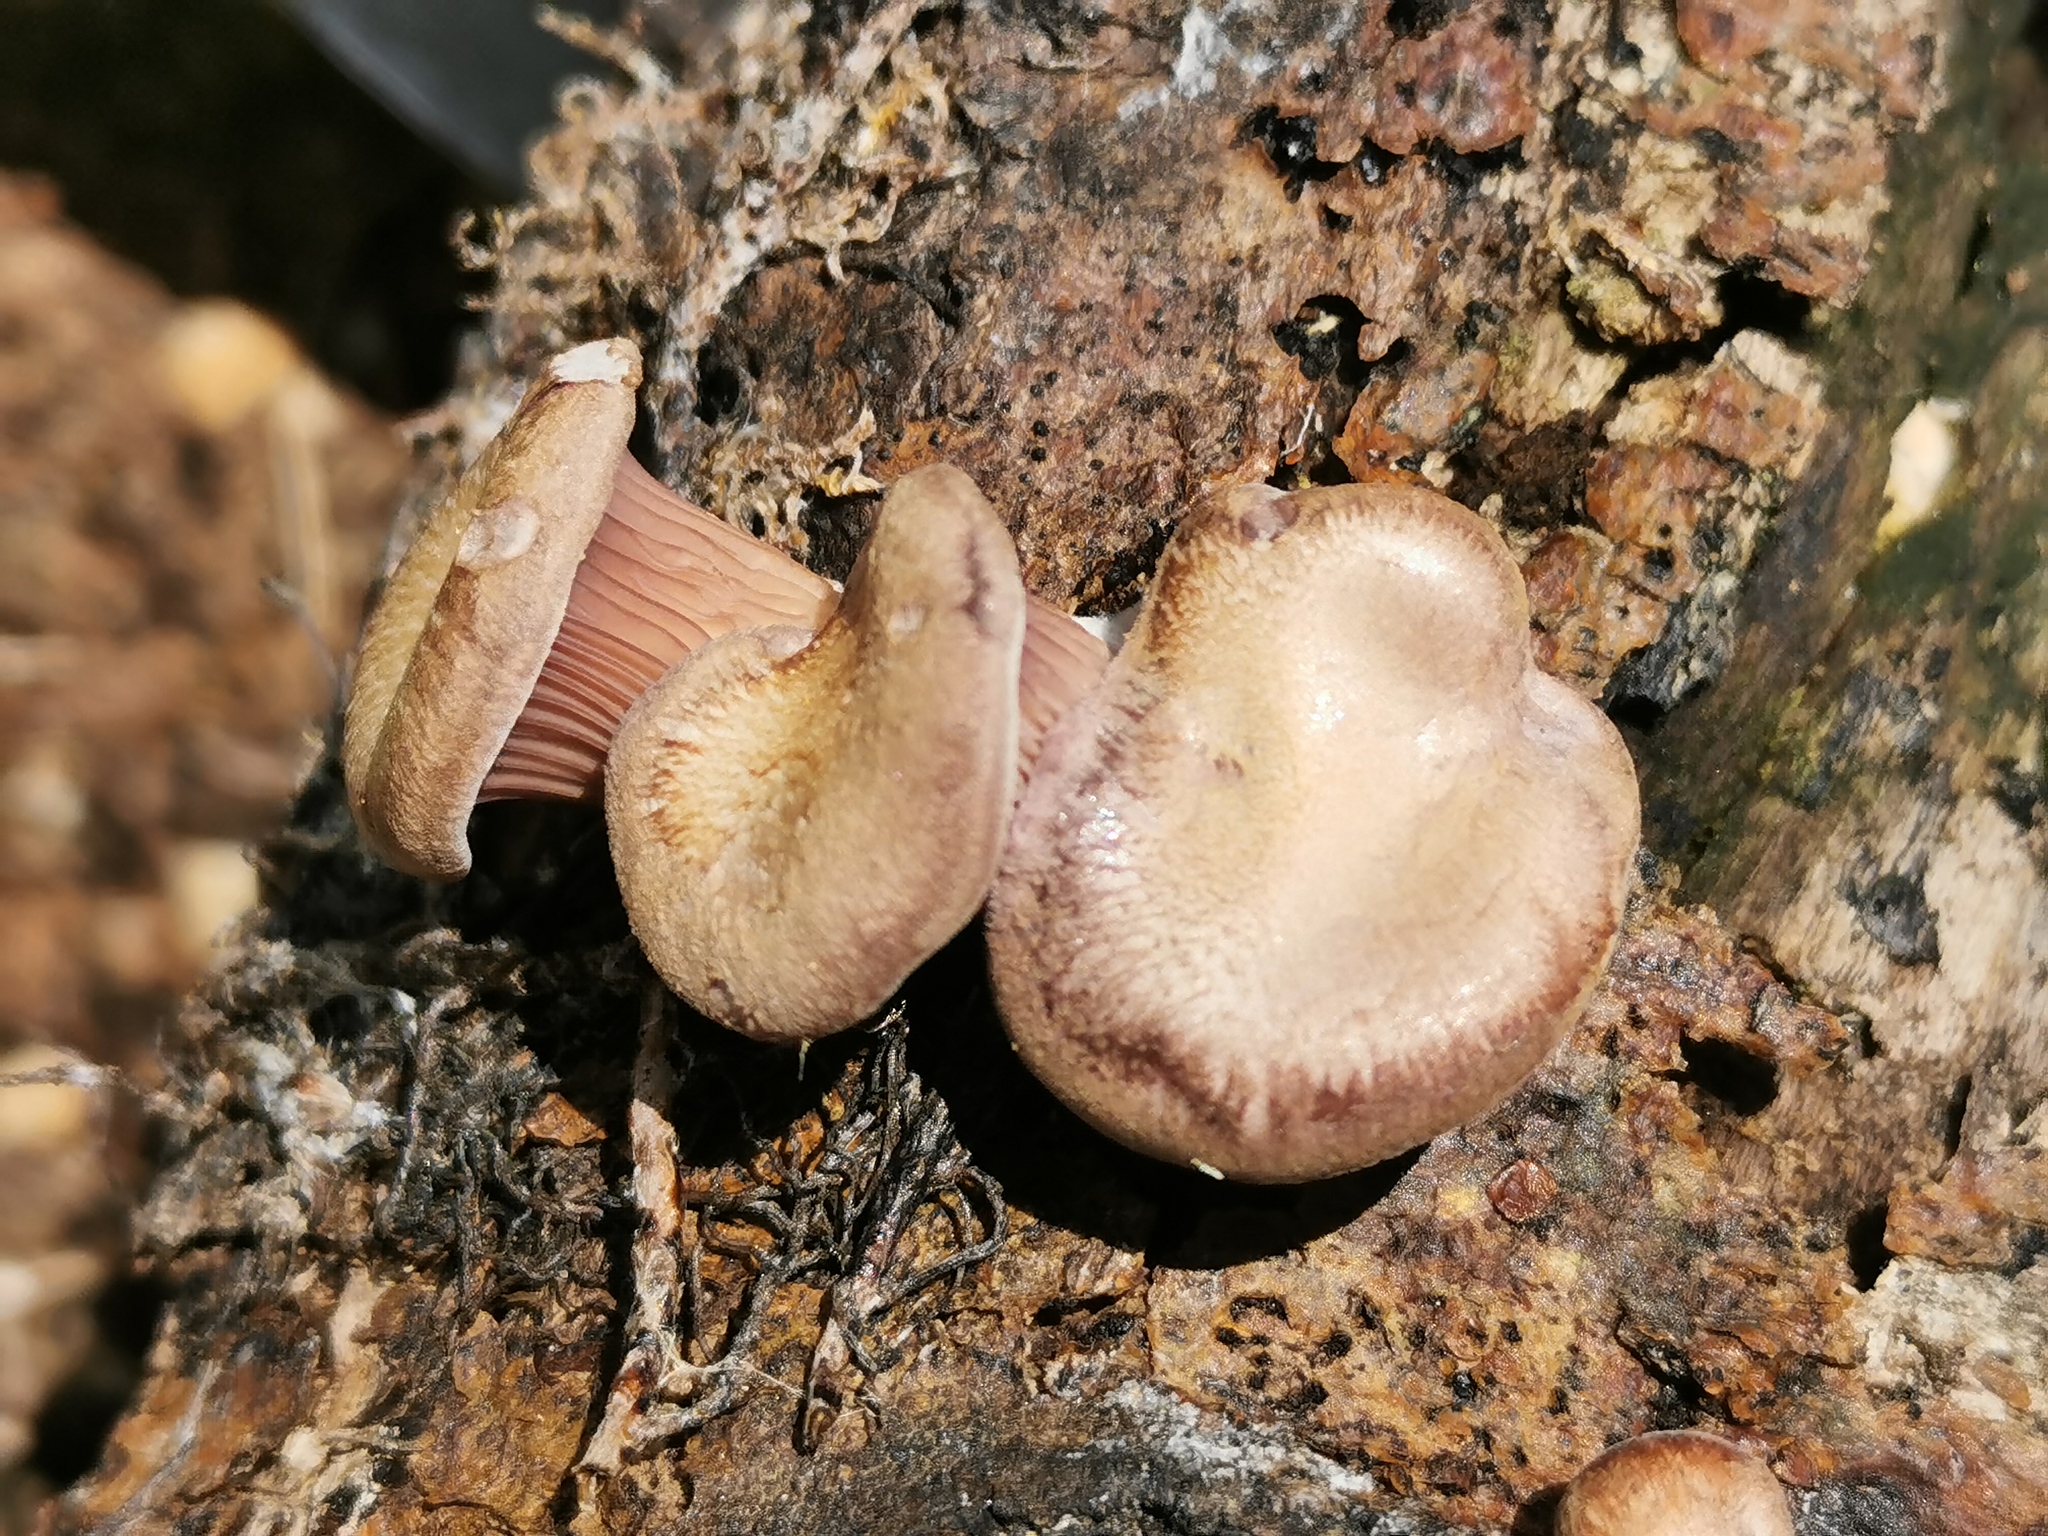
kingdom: Fungi
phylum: Basidiomycota
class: Agaricomycetes
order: Polyporales
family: Panaceae
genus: Panus
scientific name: Panus purpuratus
